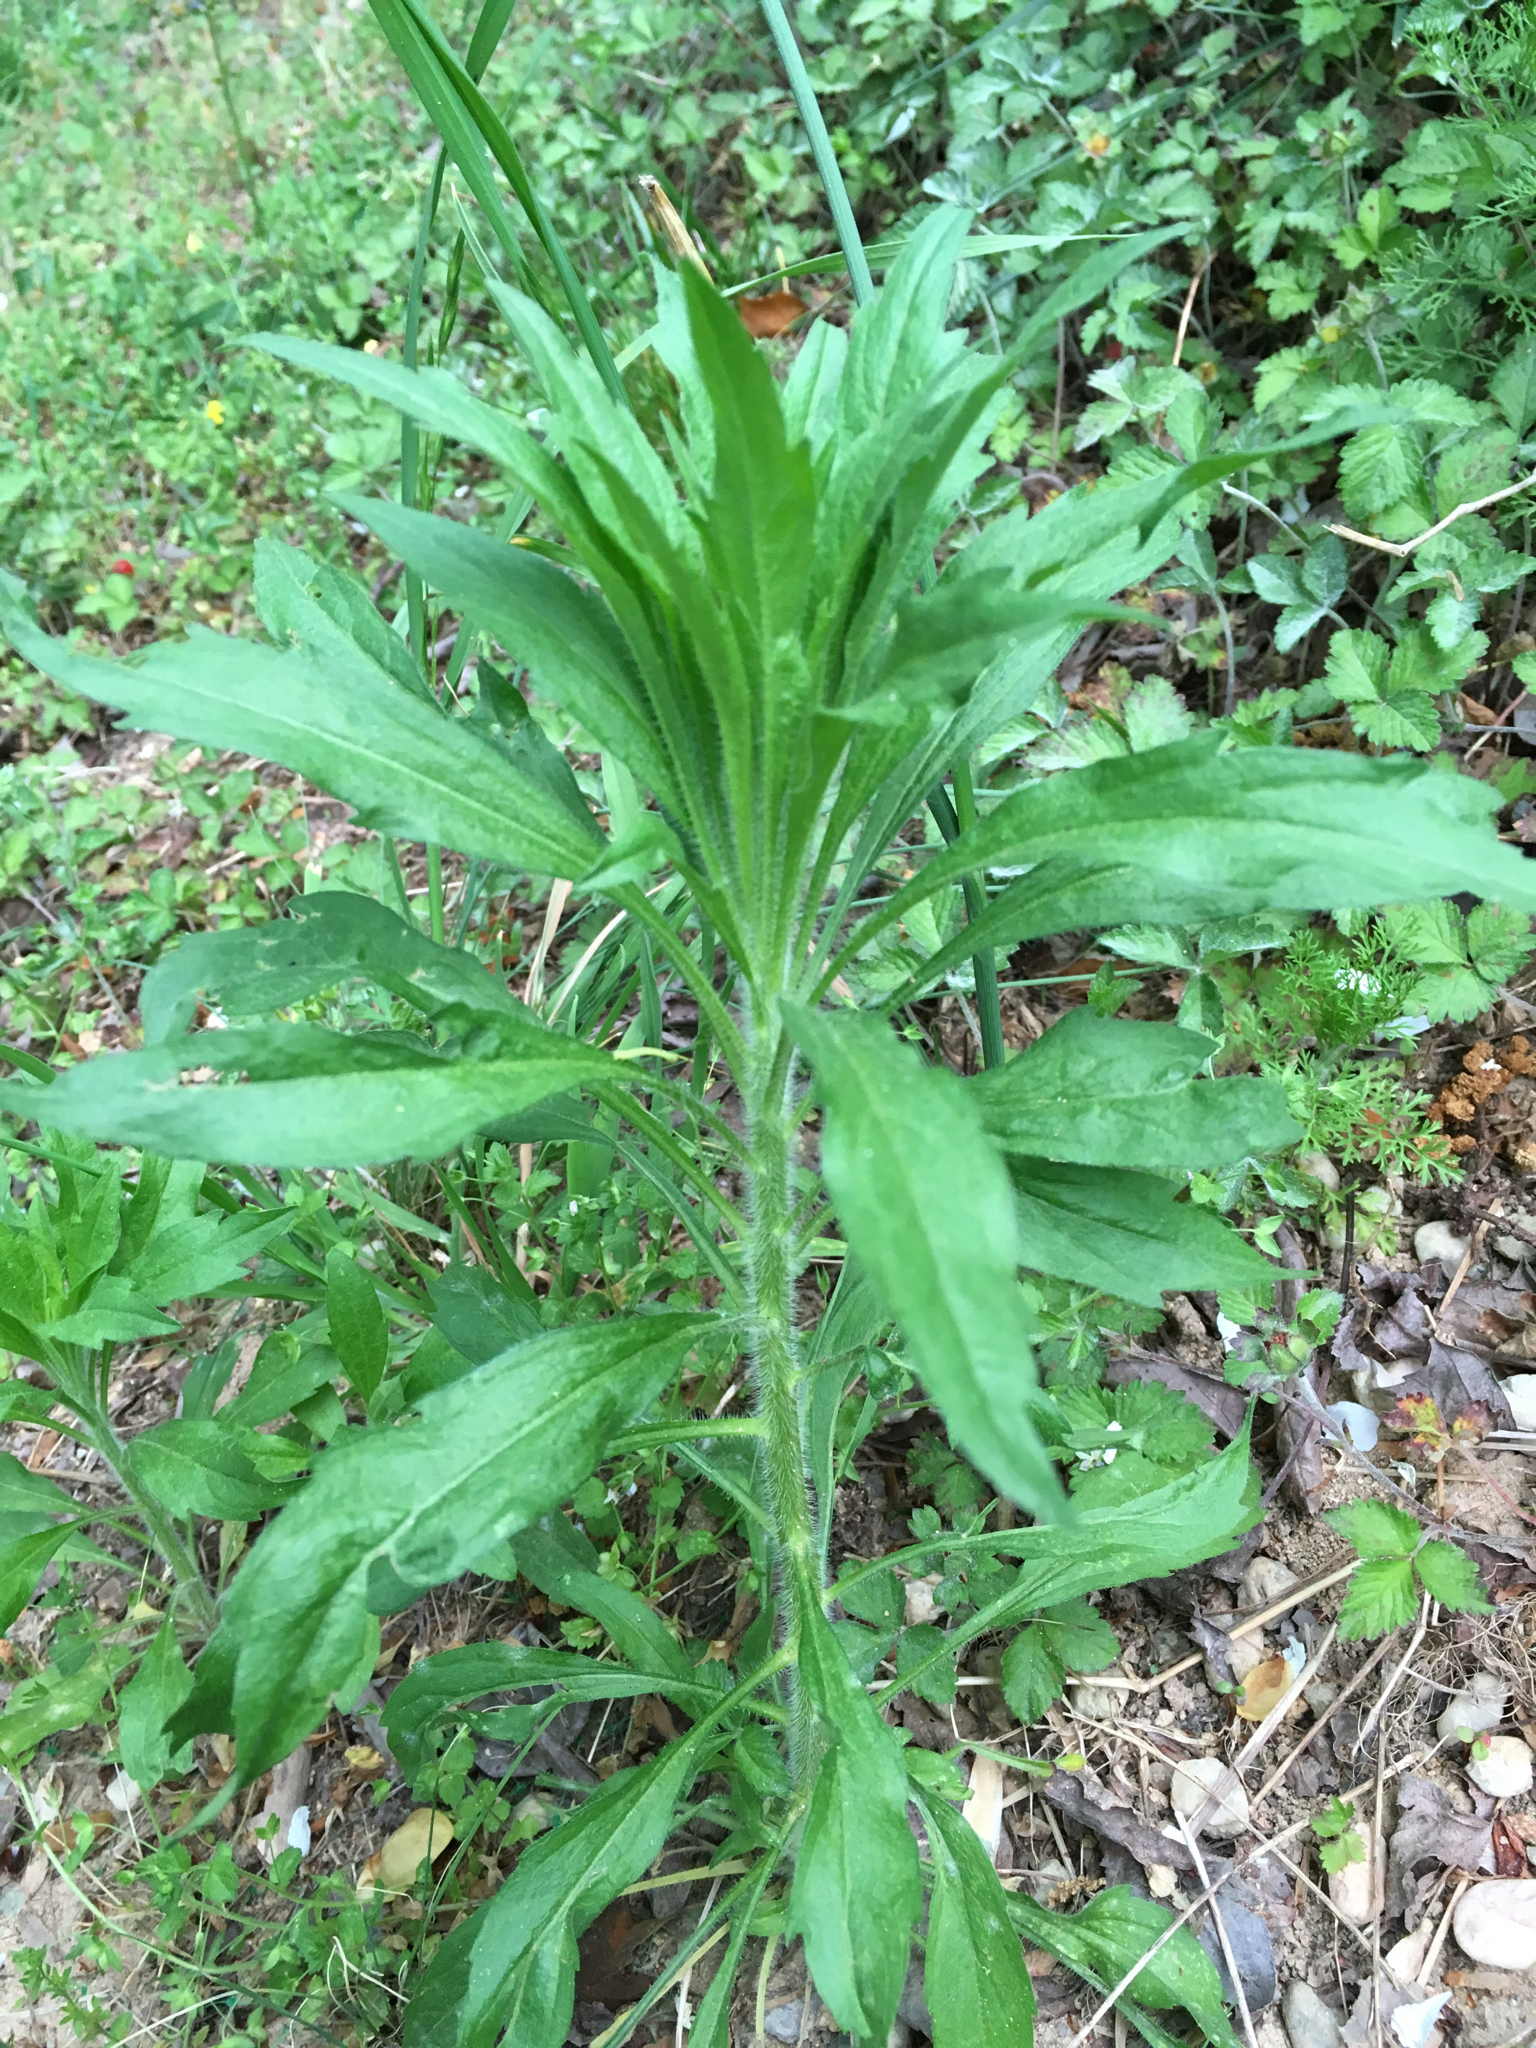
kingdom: Plantae
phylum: Tracheophyta
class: Magnoliopsida
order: Asterales
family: Asteraceae
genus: Erigeron
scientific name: Erigeron canadensis
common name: Canadian fleabane
